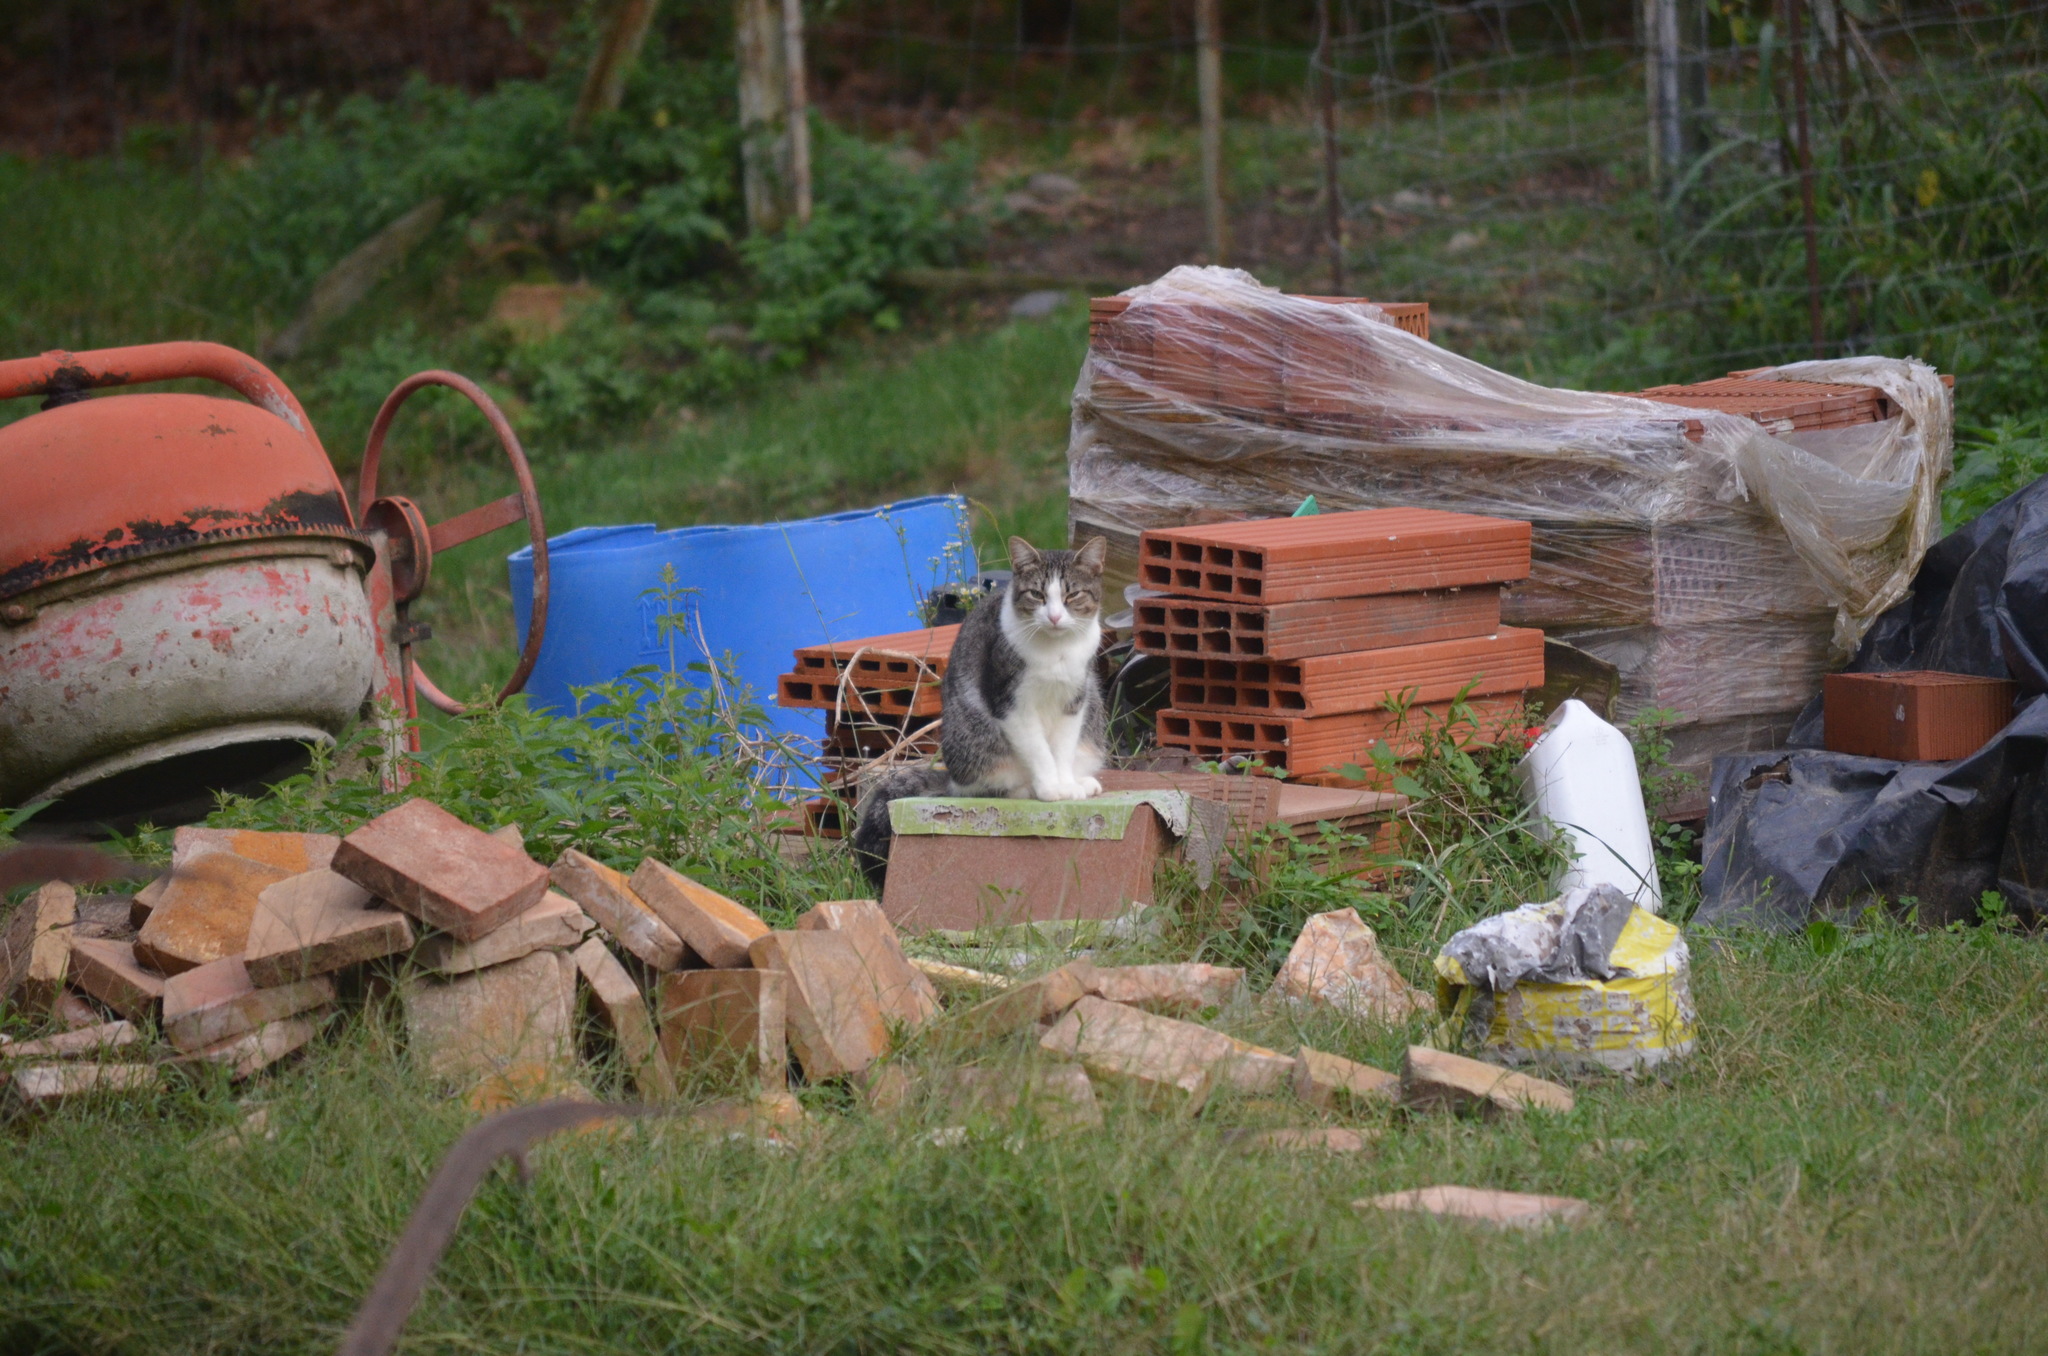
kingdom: Animalia
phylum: Chordata
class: Mammalia
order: Carnivora
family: Felidae
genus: Felis
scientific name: Felis catus
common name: Domestic cat
